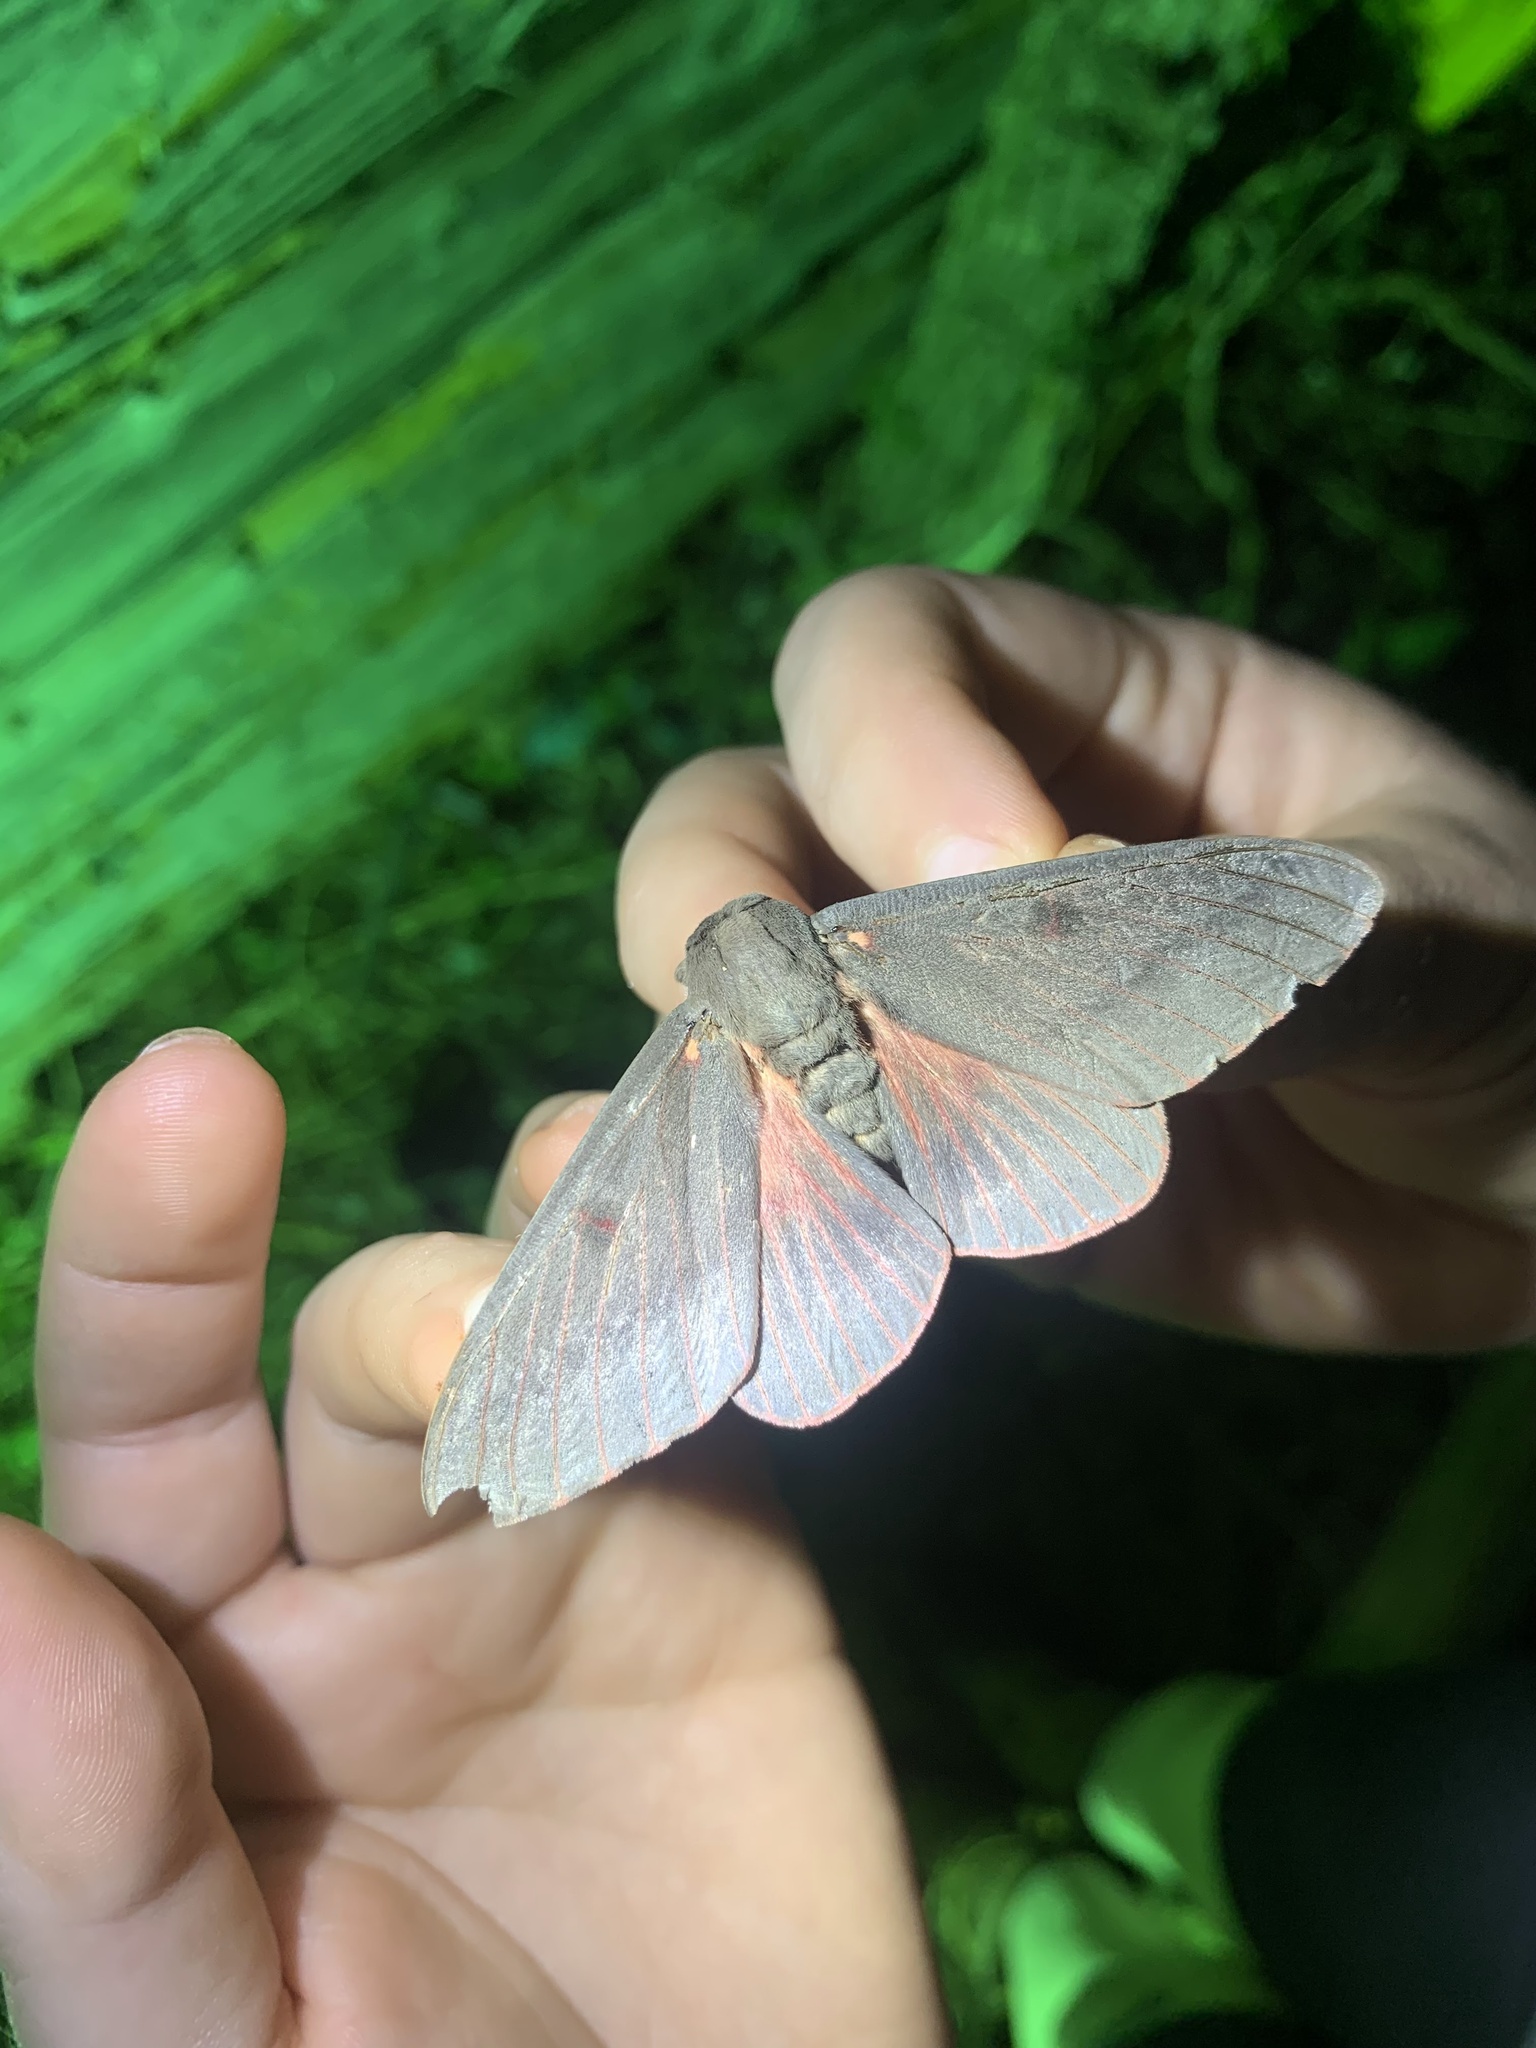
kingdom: Animalia
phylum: Arthropoda
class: Insecta
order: Lepidoptera
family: Saturniidae
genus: Citheronia
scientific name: Citheronia sepulcralis
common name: Pine-devil moth
